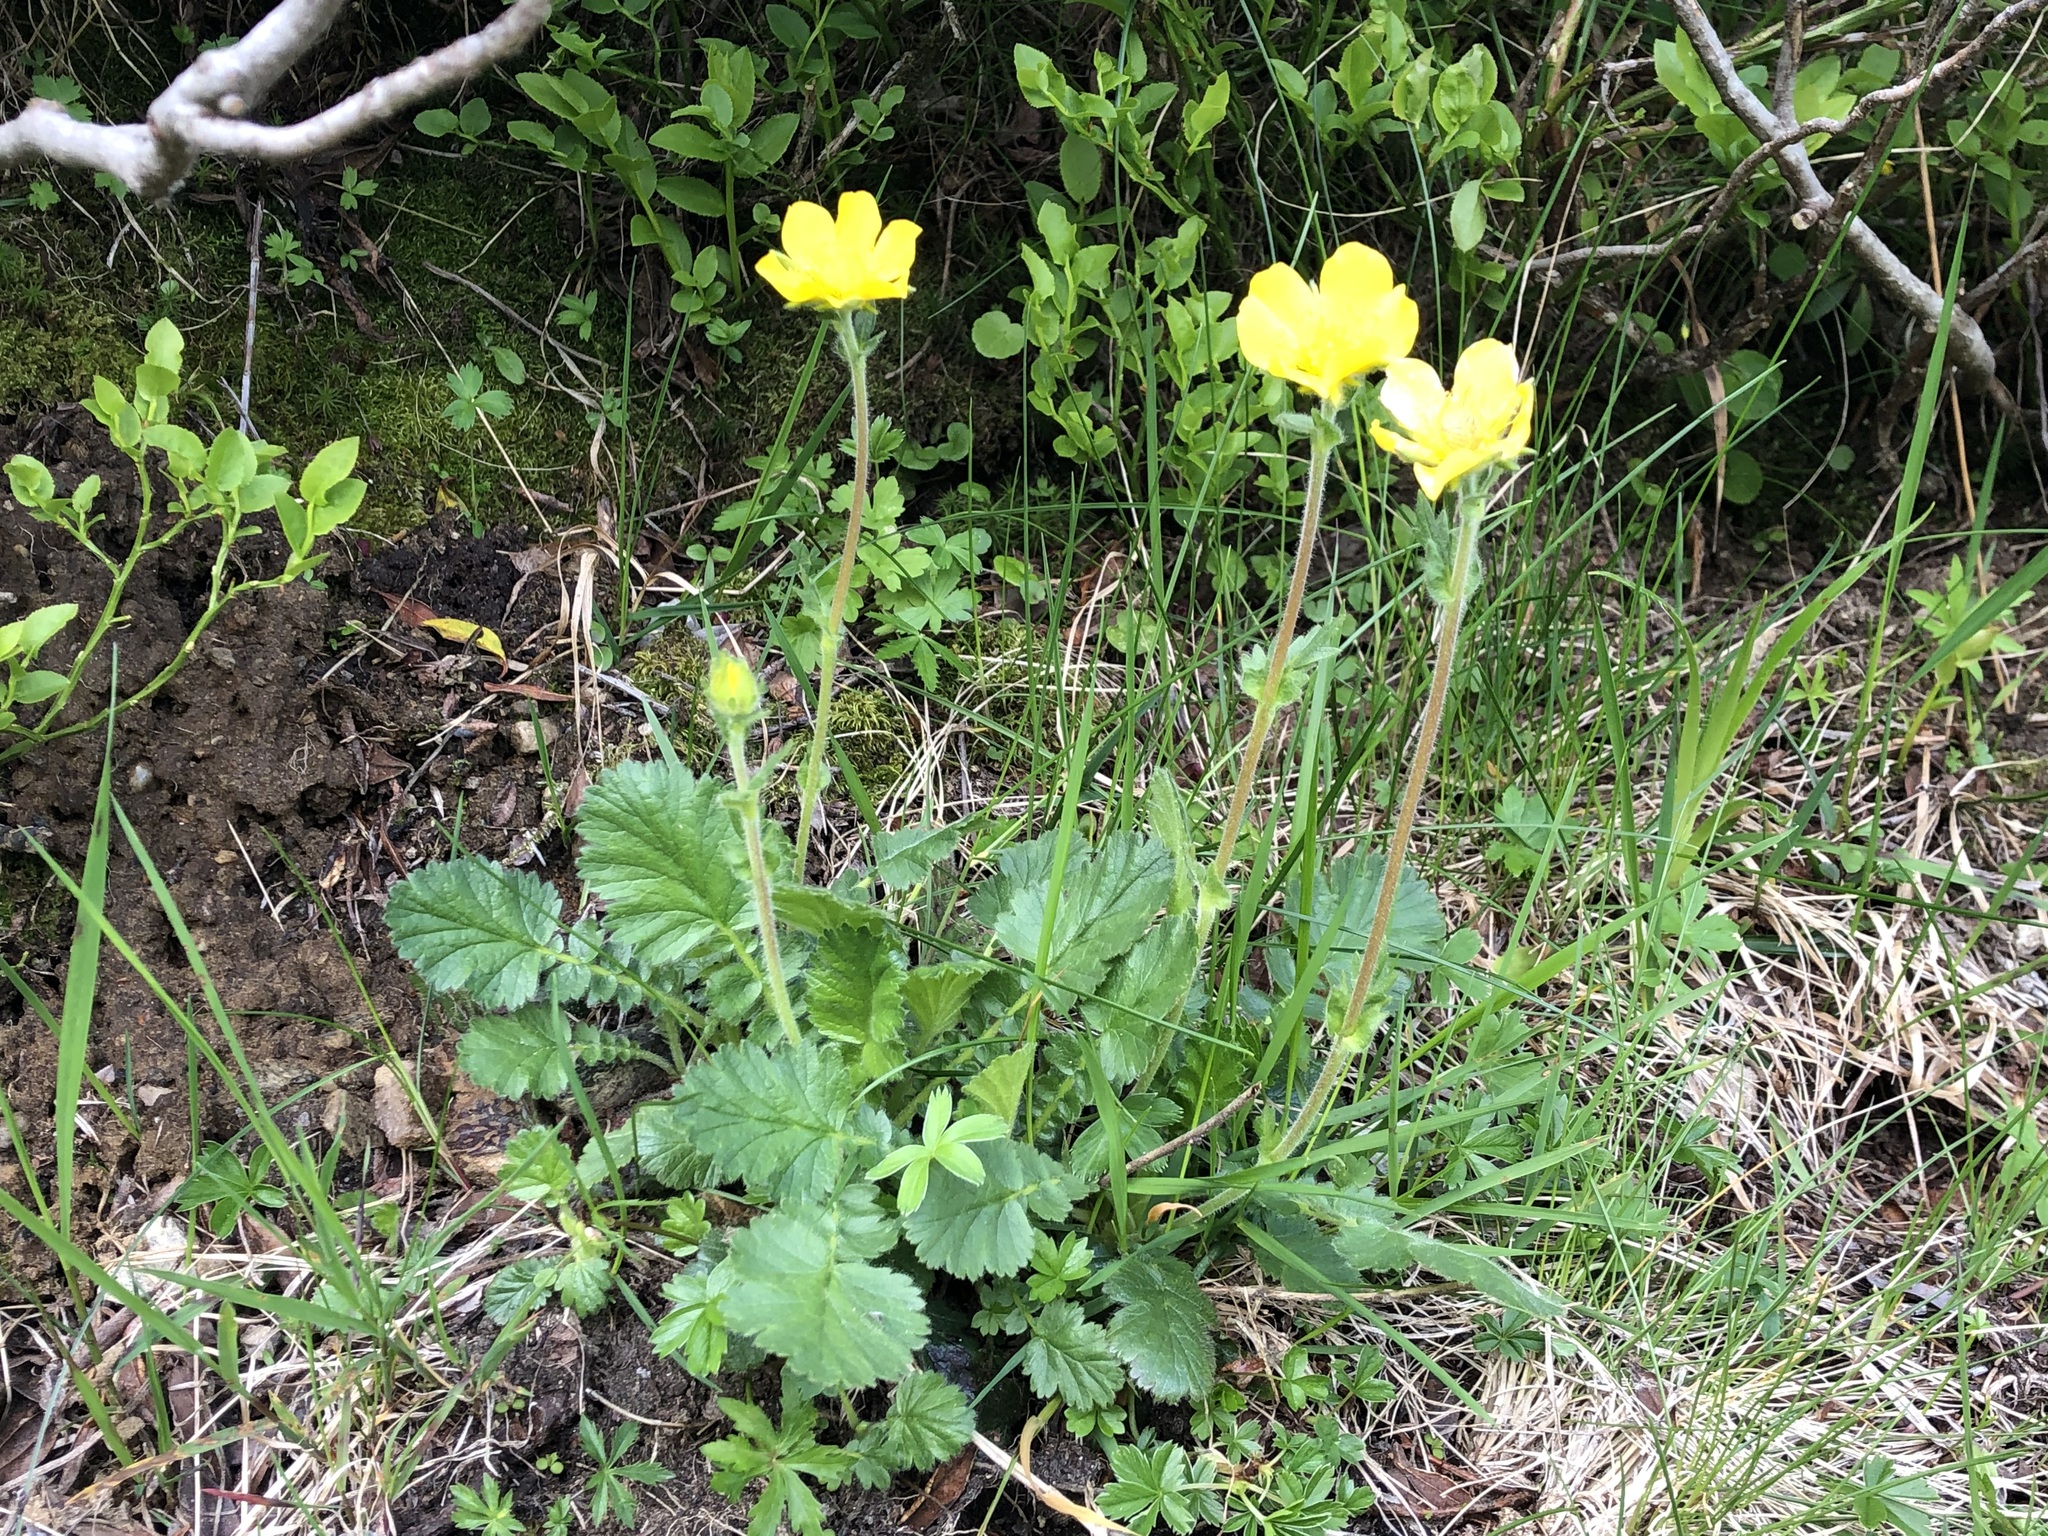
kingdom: Plantae
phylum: Tracheophyta
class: Magnoliopsida
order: Rosales
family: Rosaceae
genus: Geum
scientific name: Geum montanum
